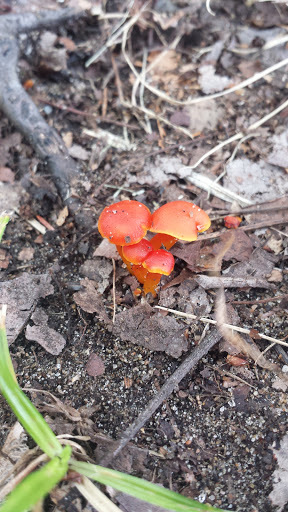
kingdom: Fungi
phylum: Basidiomycota
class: Agaricomycetes
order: Agaricales
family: Hygrophoraceae
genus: Hygrocybe
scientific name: Hygrocybe coccinea
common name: Scarlet hood
